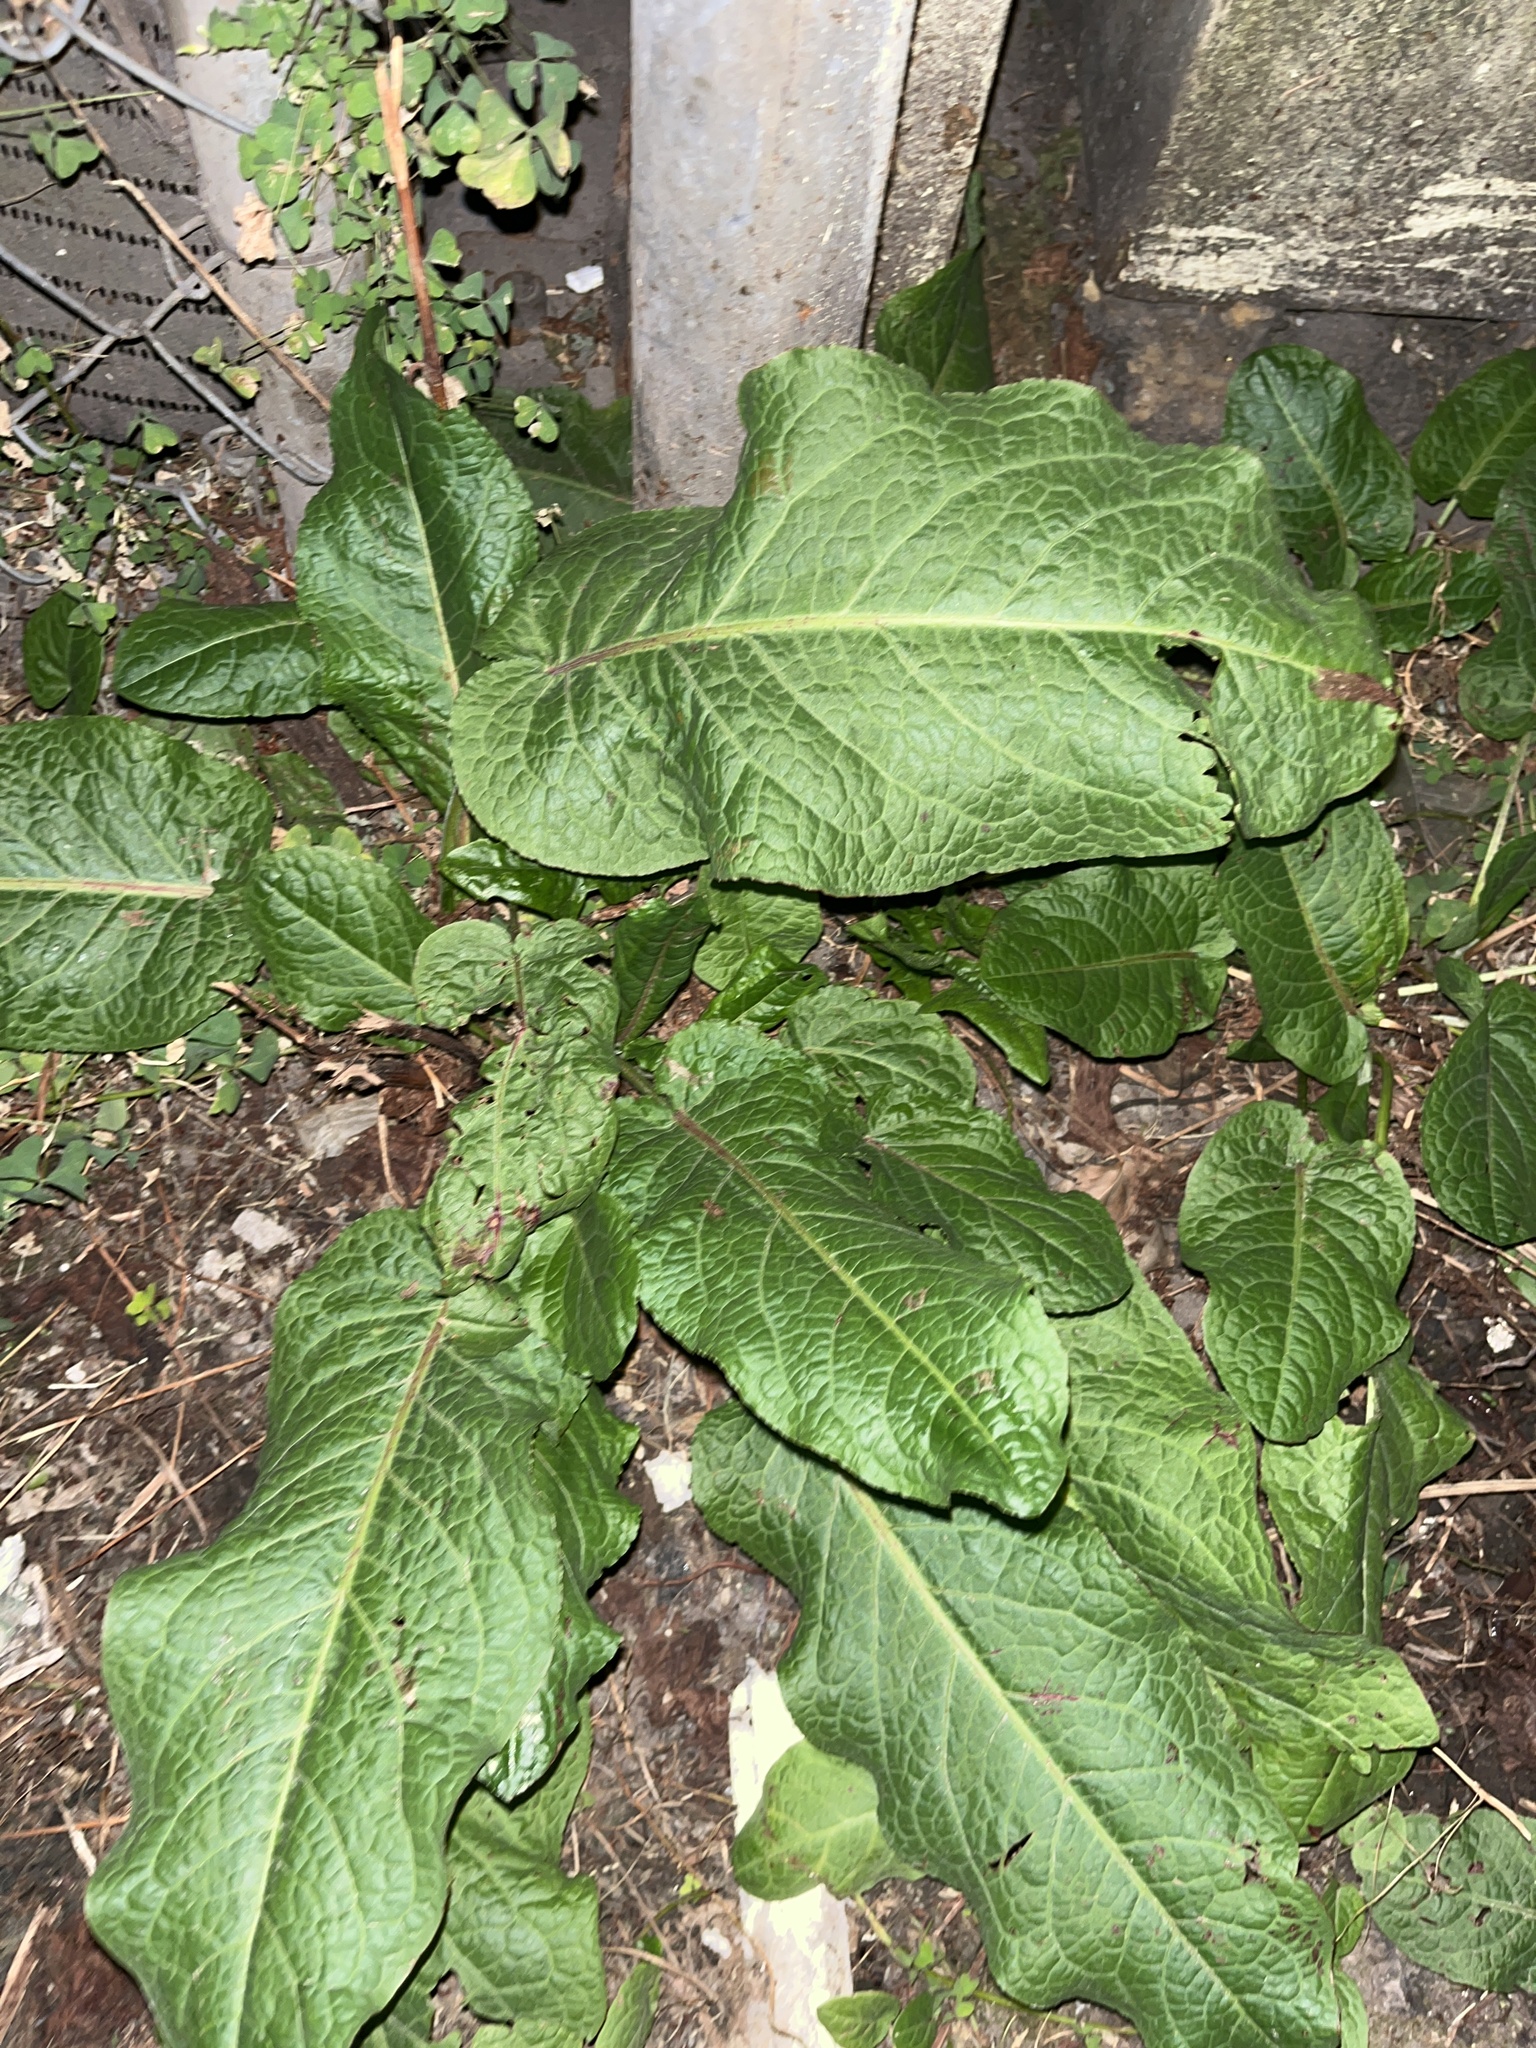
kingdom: Plantae
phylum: Tracheophyta
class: Magnoliopsida
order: Caryophyllales
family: Polygonaceae
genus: Rumex
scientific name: Rumex obtusifolius
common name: Bitter dock
